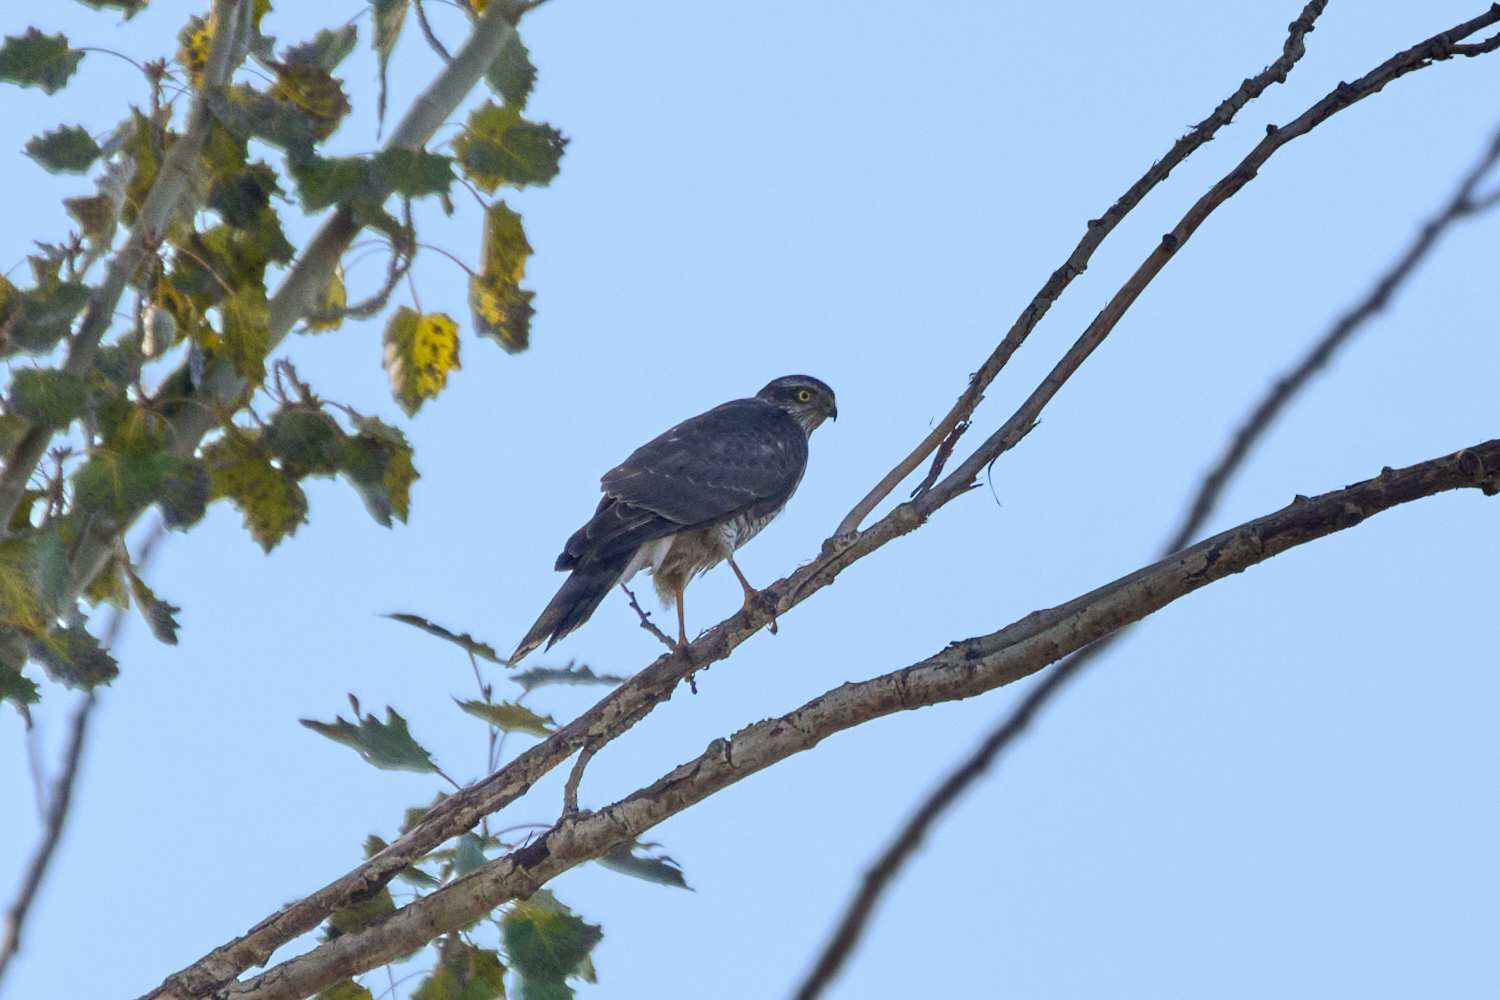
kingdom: Animalia
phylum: Chordata
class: Aves
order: Accipitriformes
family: Accipitridae
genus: Accipiter
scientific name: Accipiter nisus
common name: Eurasian sparrowhawk
